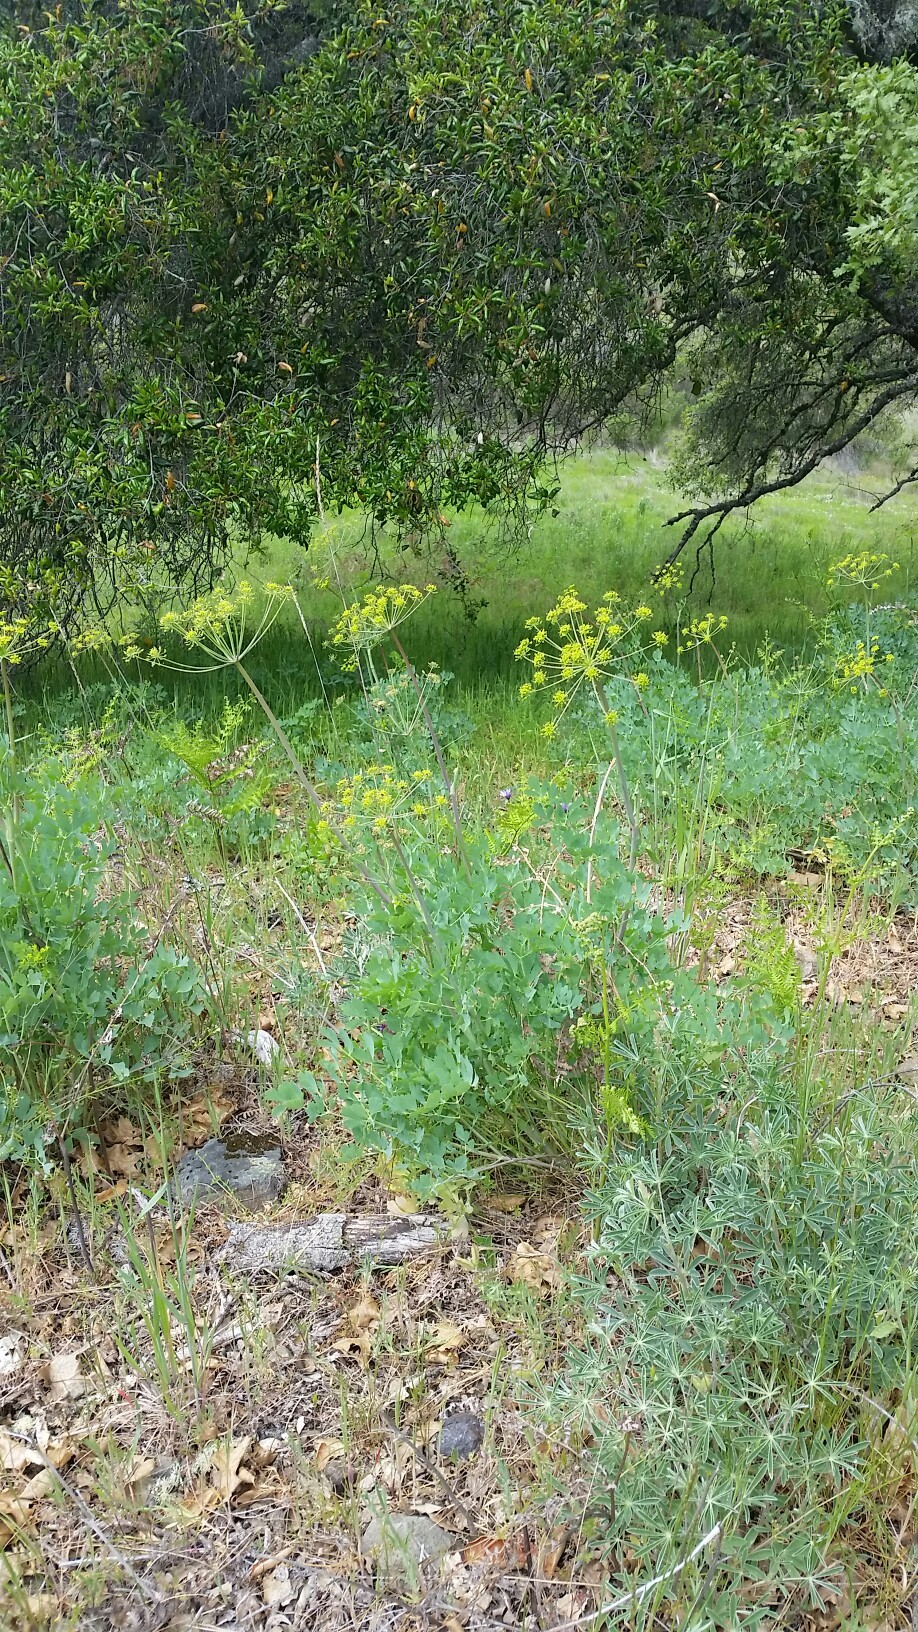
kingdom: Plantae
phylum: Tracheophyta
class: Magnoliopsida
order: Apiales
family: Apiaceae
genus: Lomatium
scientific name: Lomatium californicum
